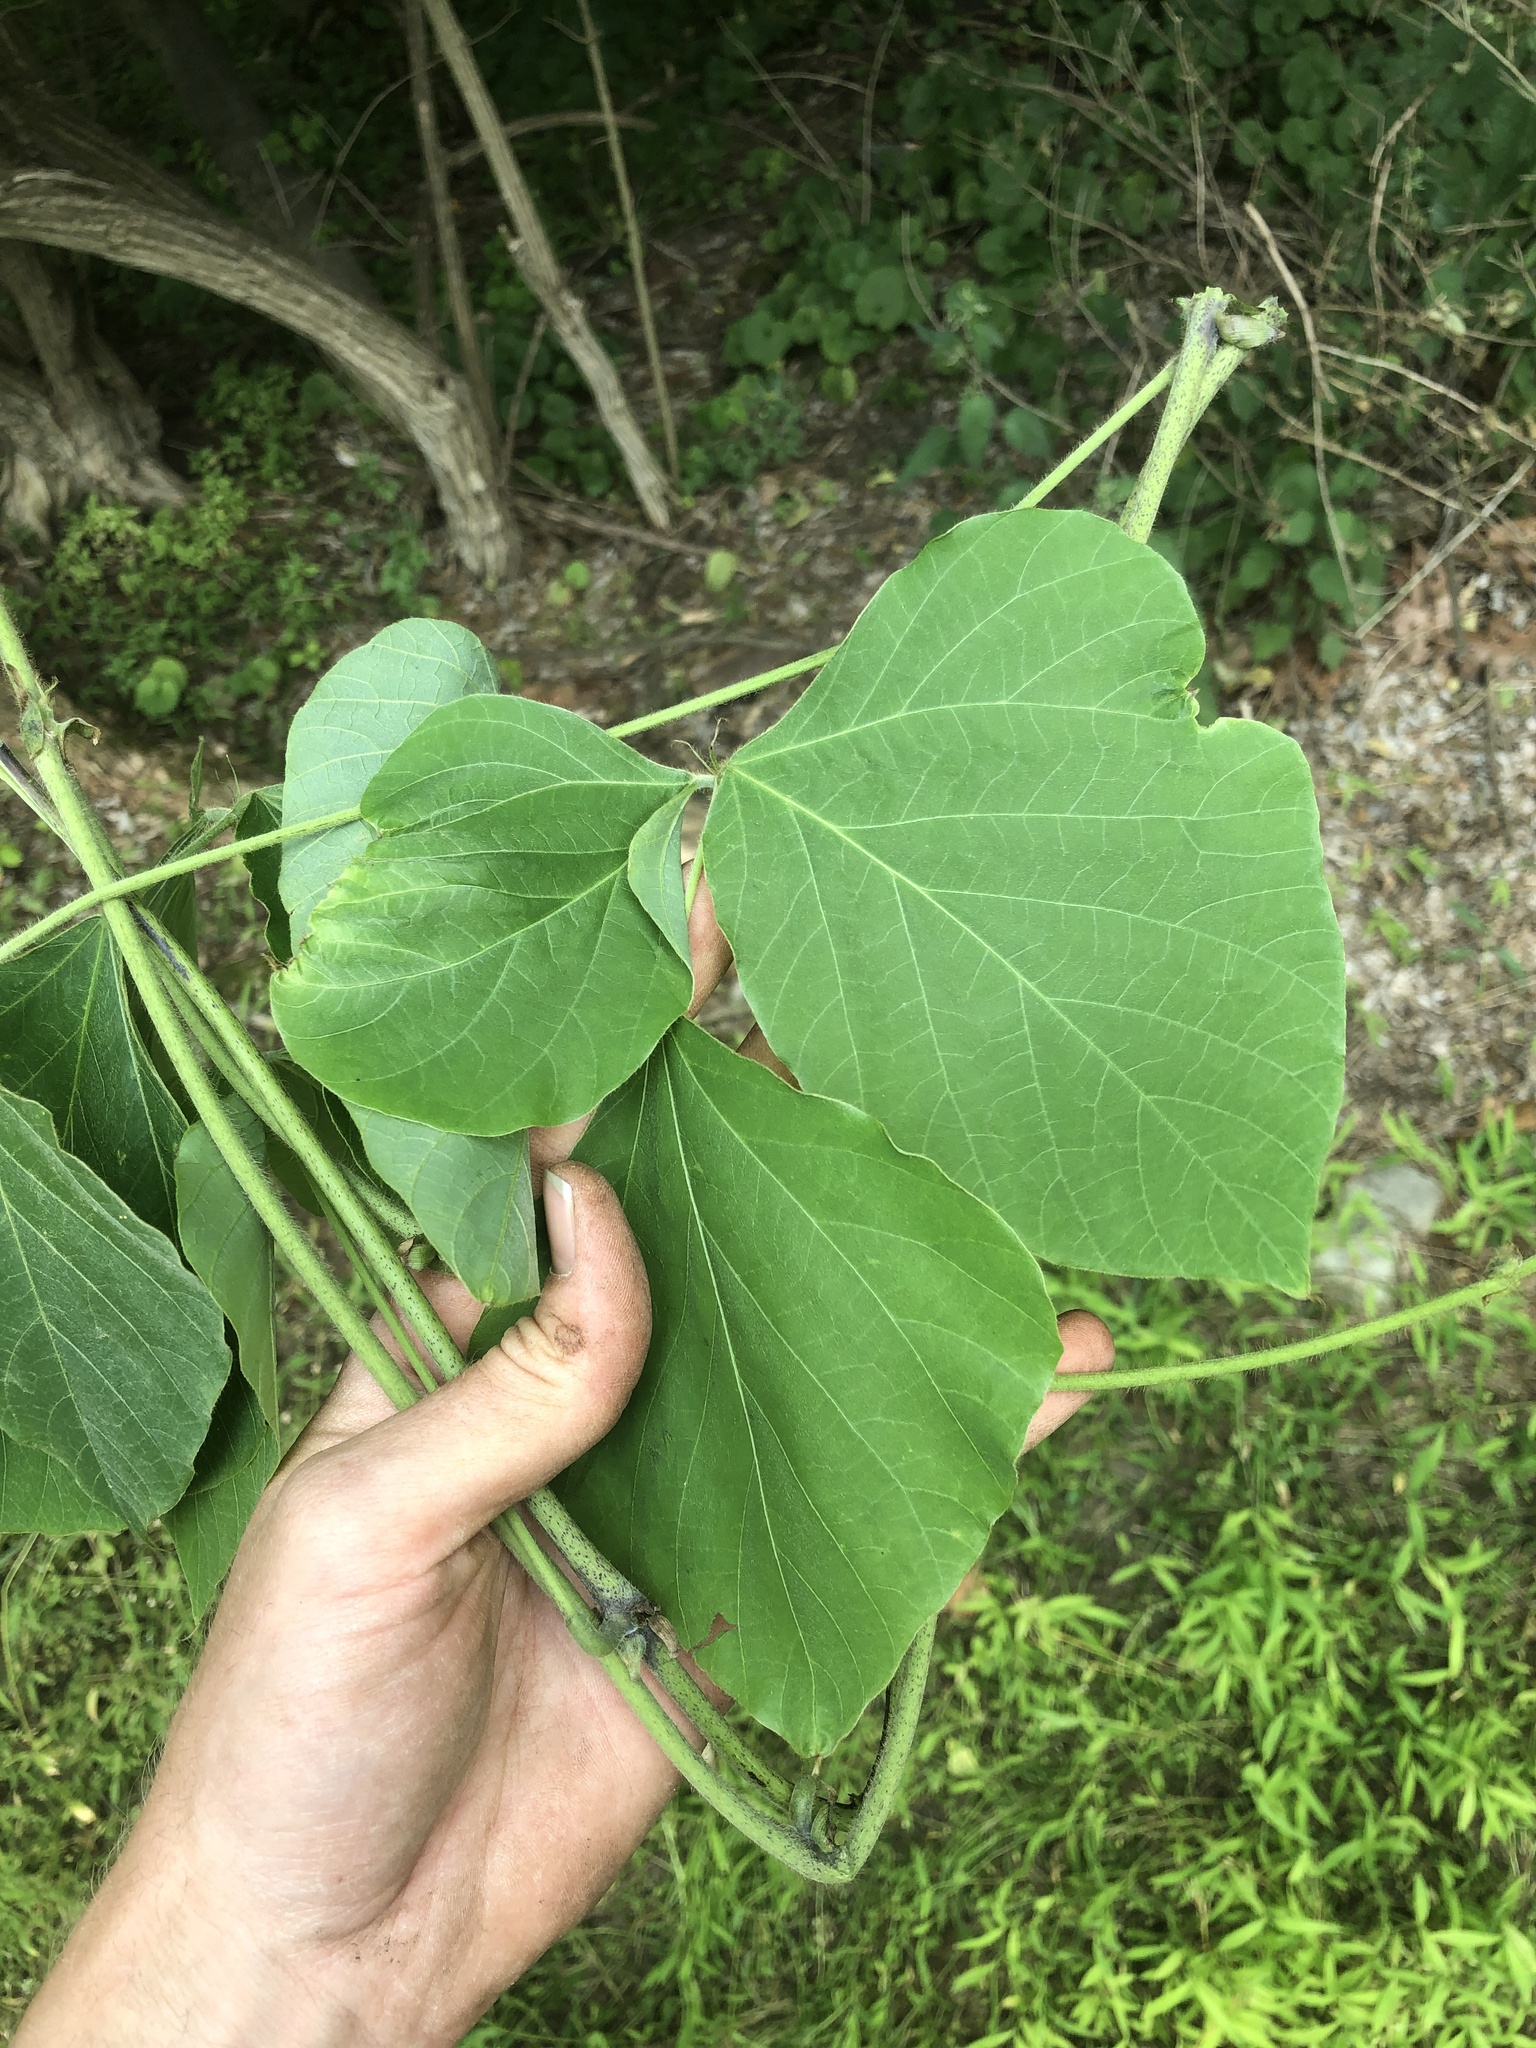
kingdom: Plantae
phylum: Tracheophyta
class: Magnoliopsida
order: Fabales
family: Fabaceae
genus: Pueraria
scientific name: Pueraria montana
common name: Kudzu
